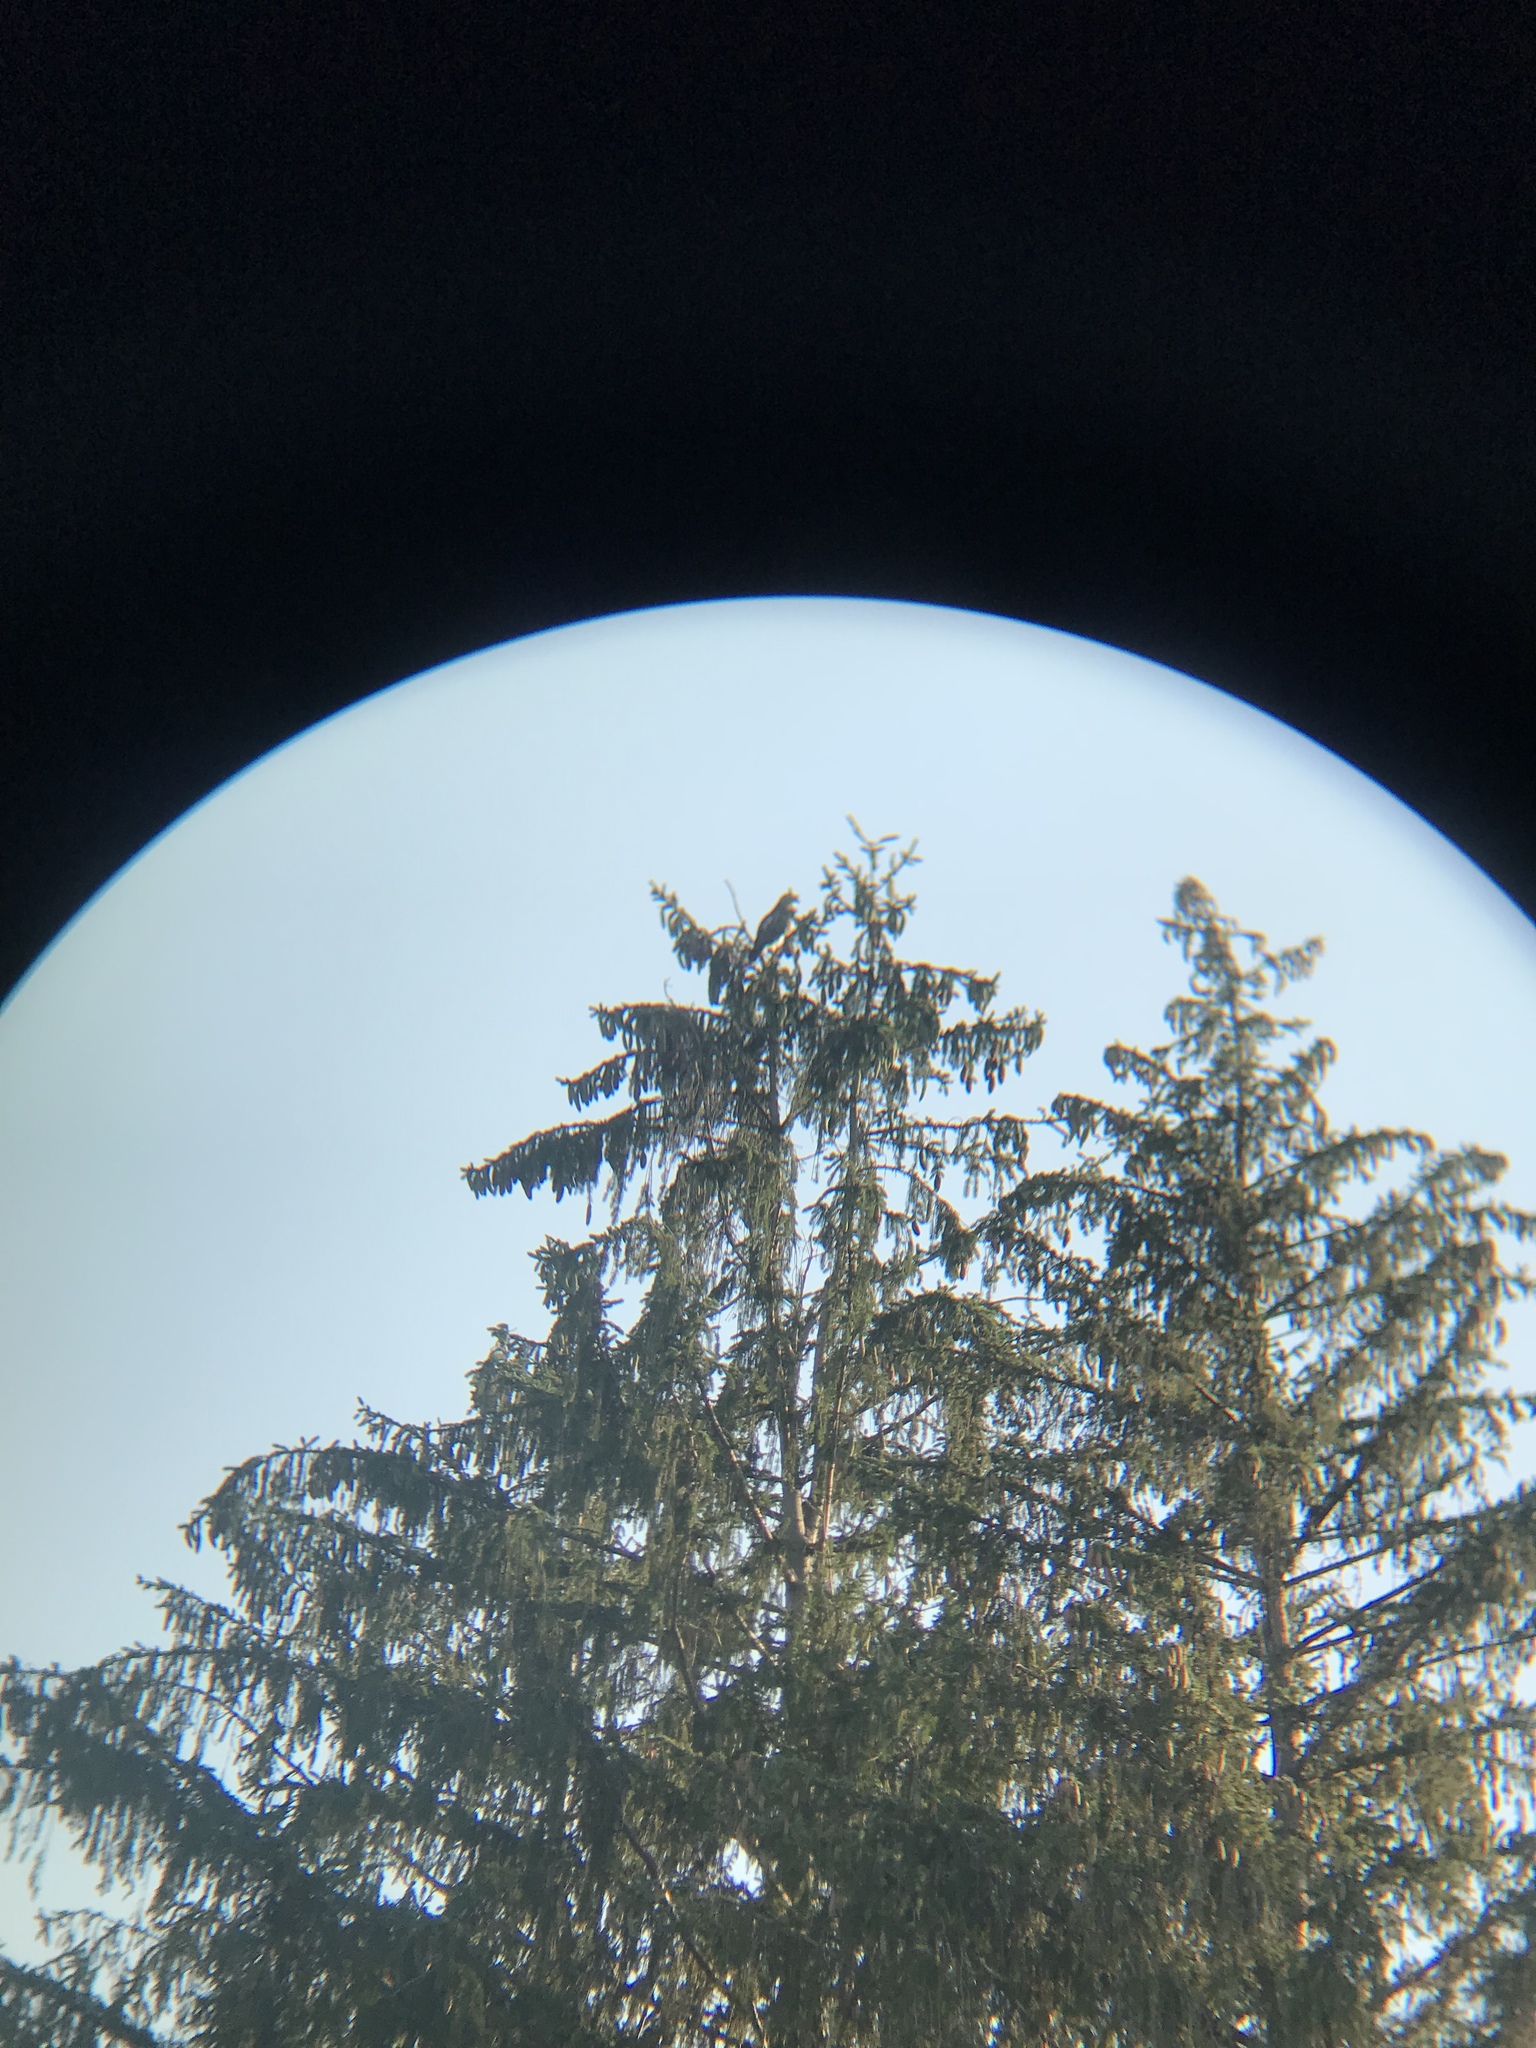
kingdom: Animalia
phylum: Chordata
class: Aves
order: Accipitriformes
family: Accipitridae
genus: Buteo
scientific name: Buteo jamaicensis
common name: Red-tailed hawk
